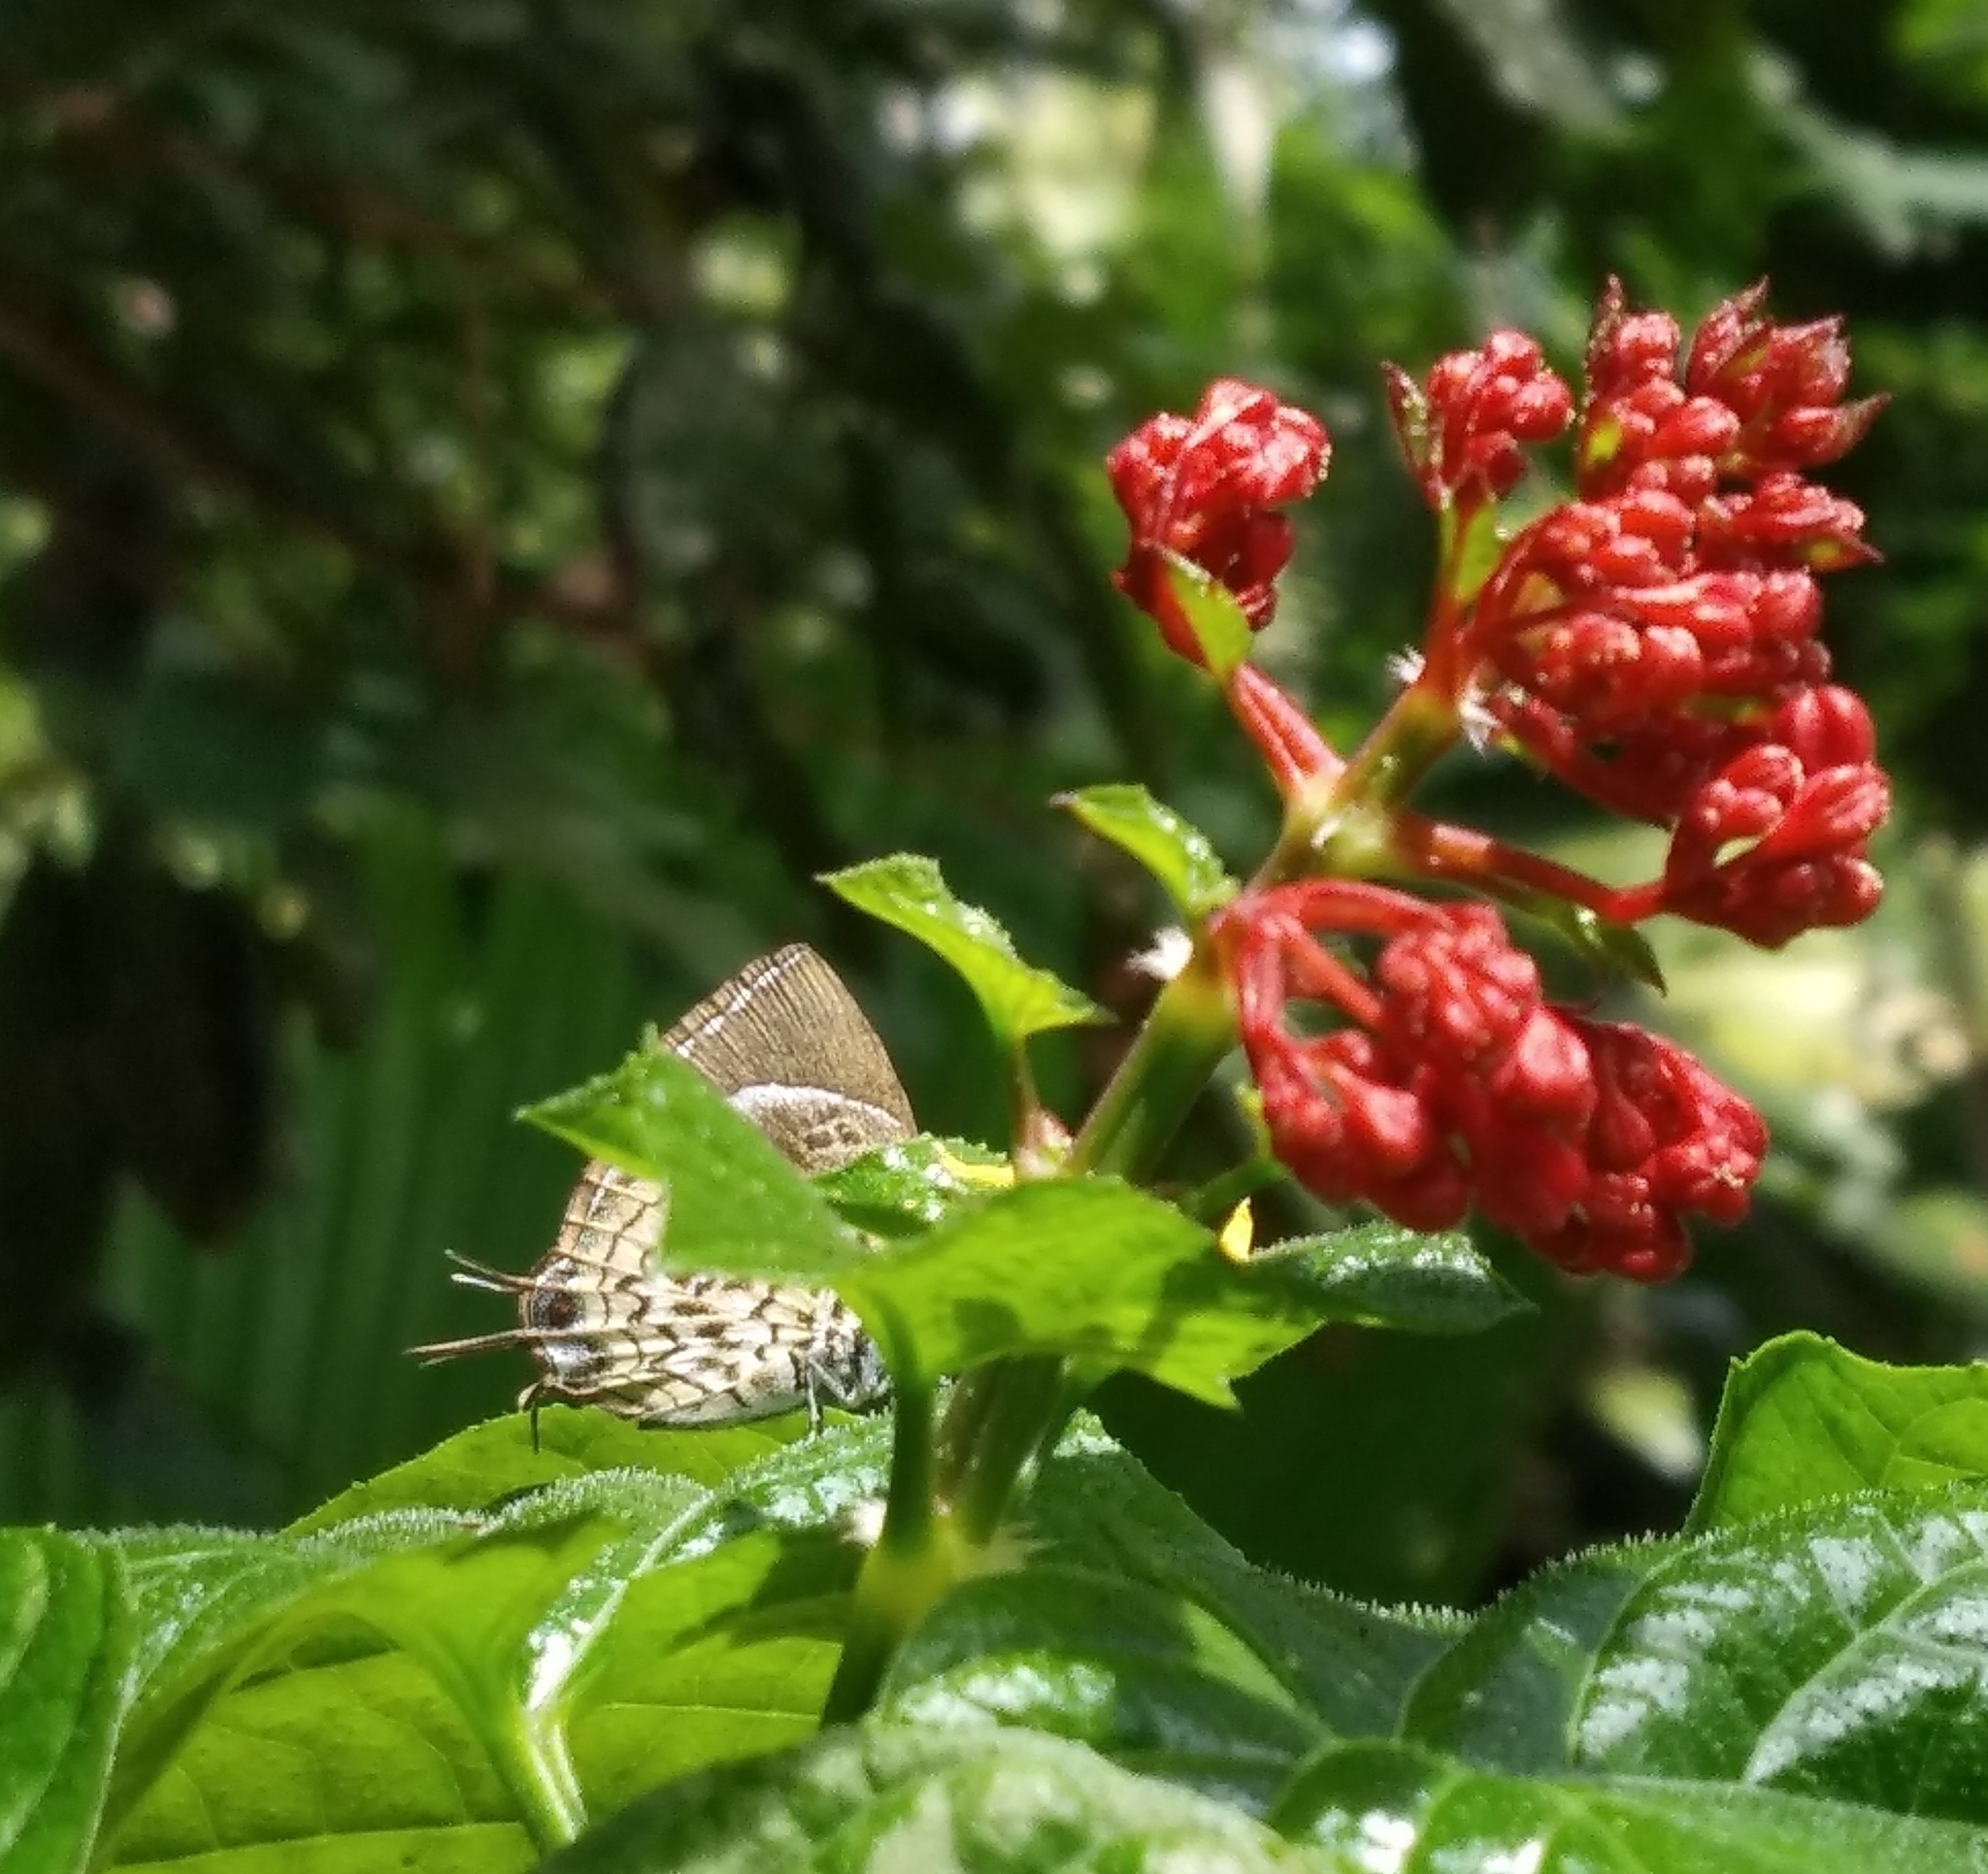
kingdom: Animalia
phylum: Arthropoda
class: Insecta
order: Lepidoptera
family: Lycaenidae
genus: Rathinda
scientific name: Rathinda amor
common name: Monkey puzzle
